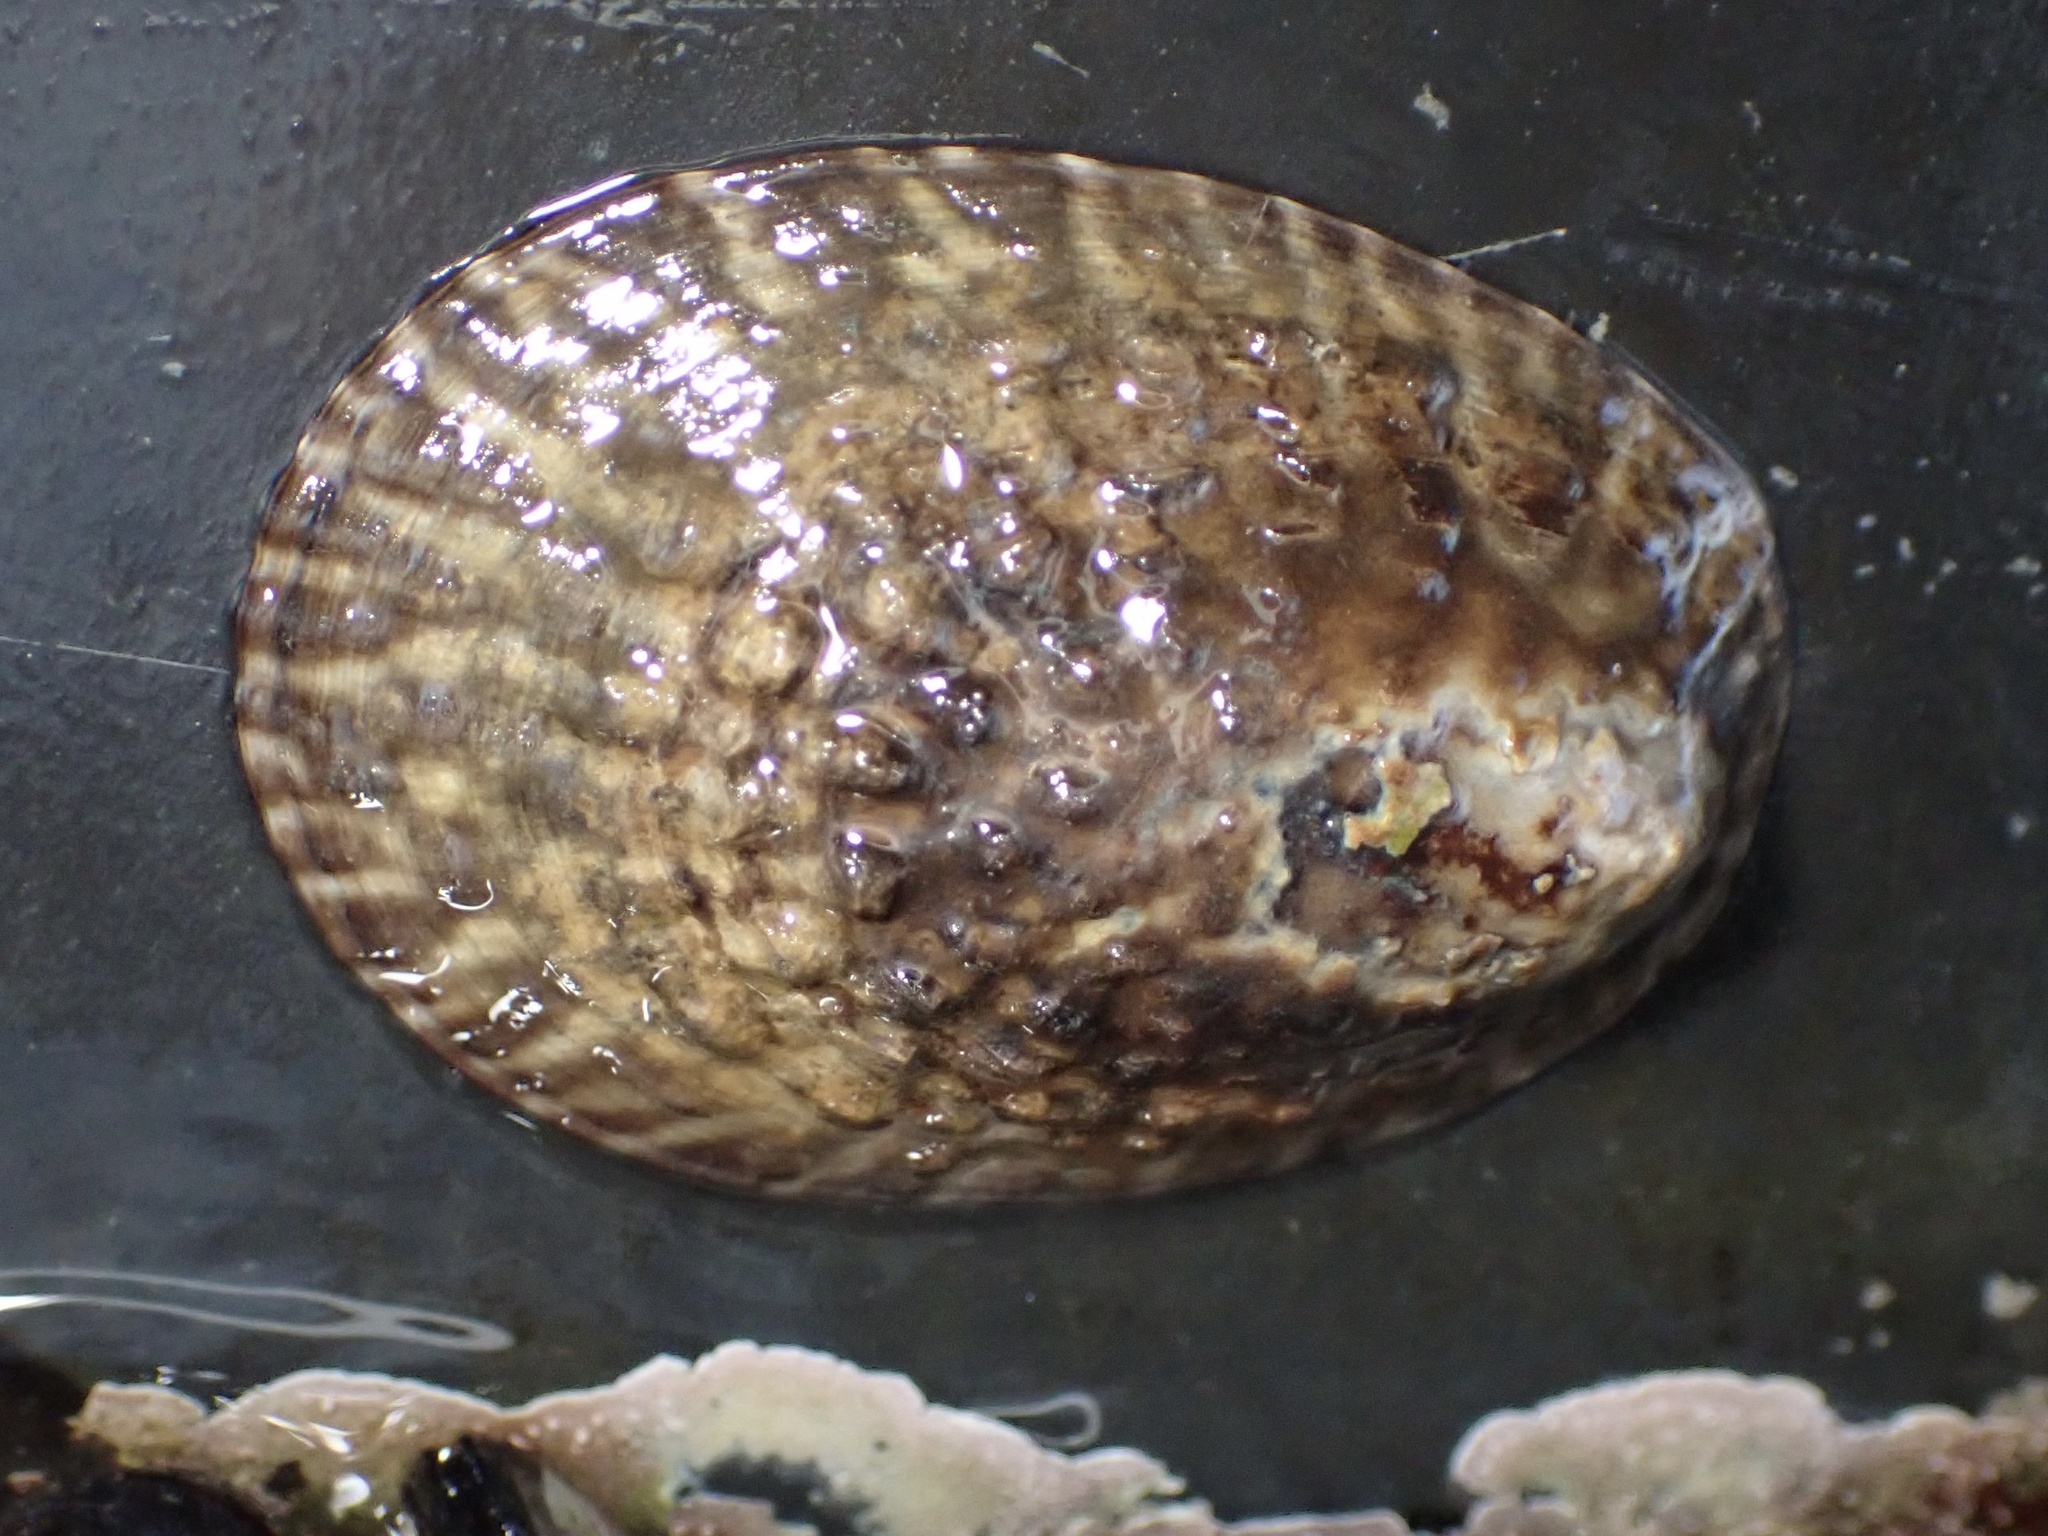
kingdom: Animalia
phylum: Mollusca
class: Gastropoda
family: Lottiidae
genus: Lottia
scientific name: Lottia gigantea
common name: Owl limpet
